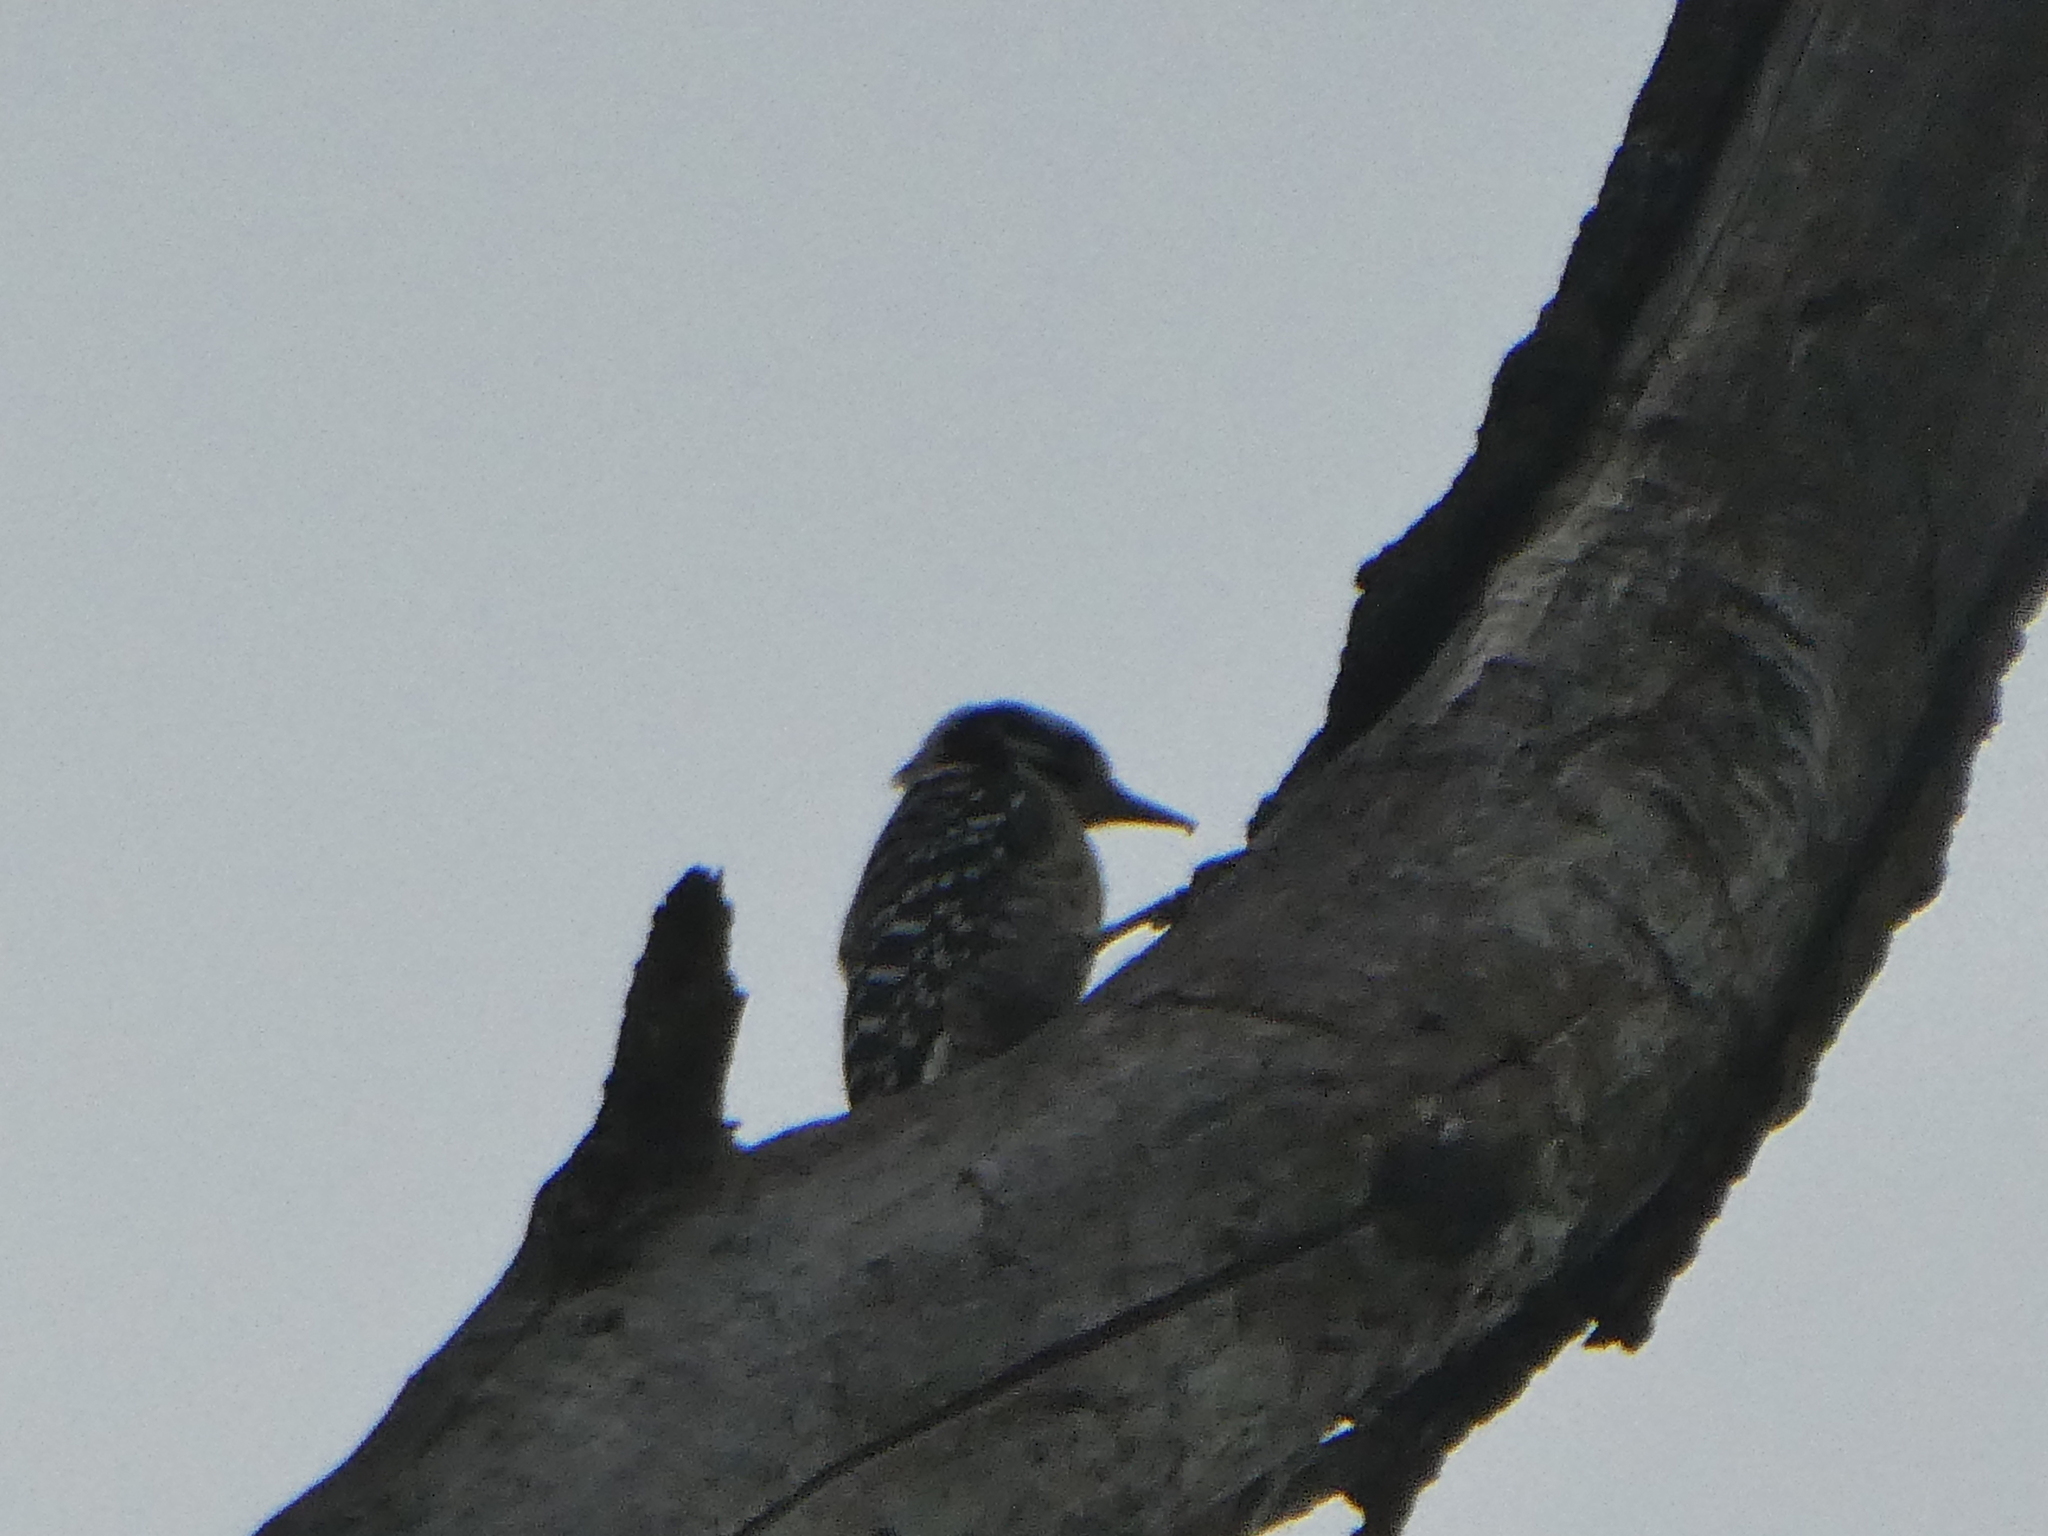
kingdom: Animalia
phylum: Chordata
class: Aves
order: Piciformes
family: Picidae
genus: Dryobates
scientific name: Dryobates nuttallii
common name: Nuttall's woodpecker
